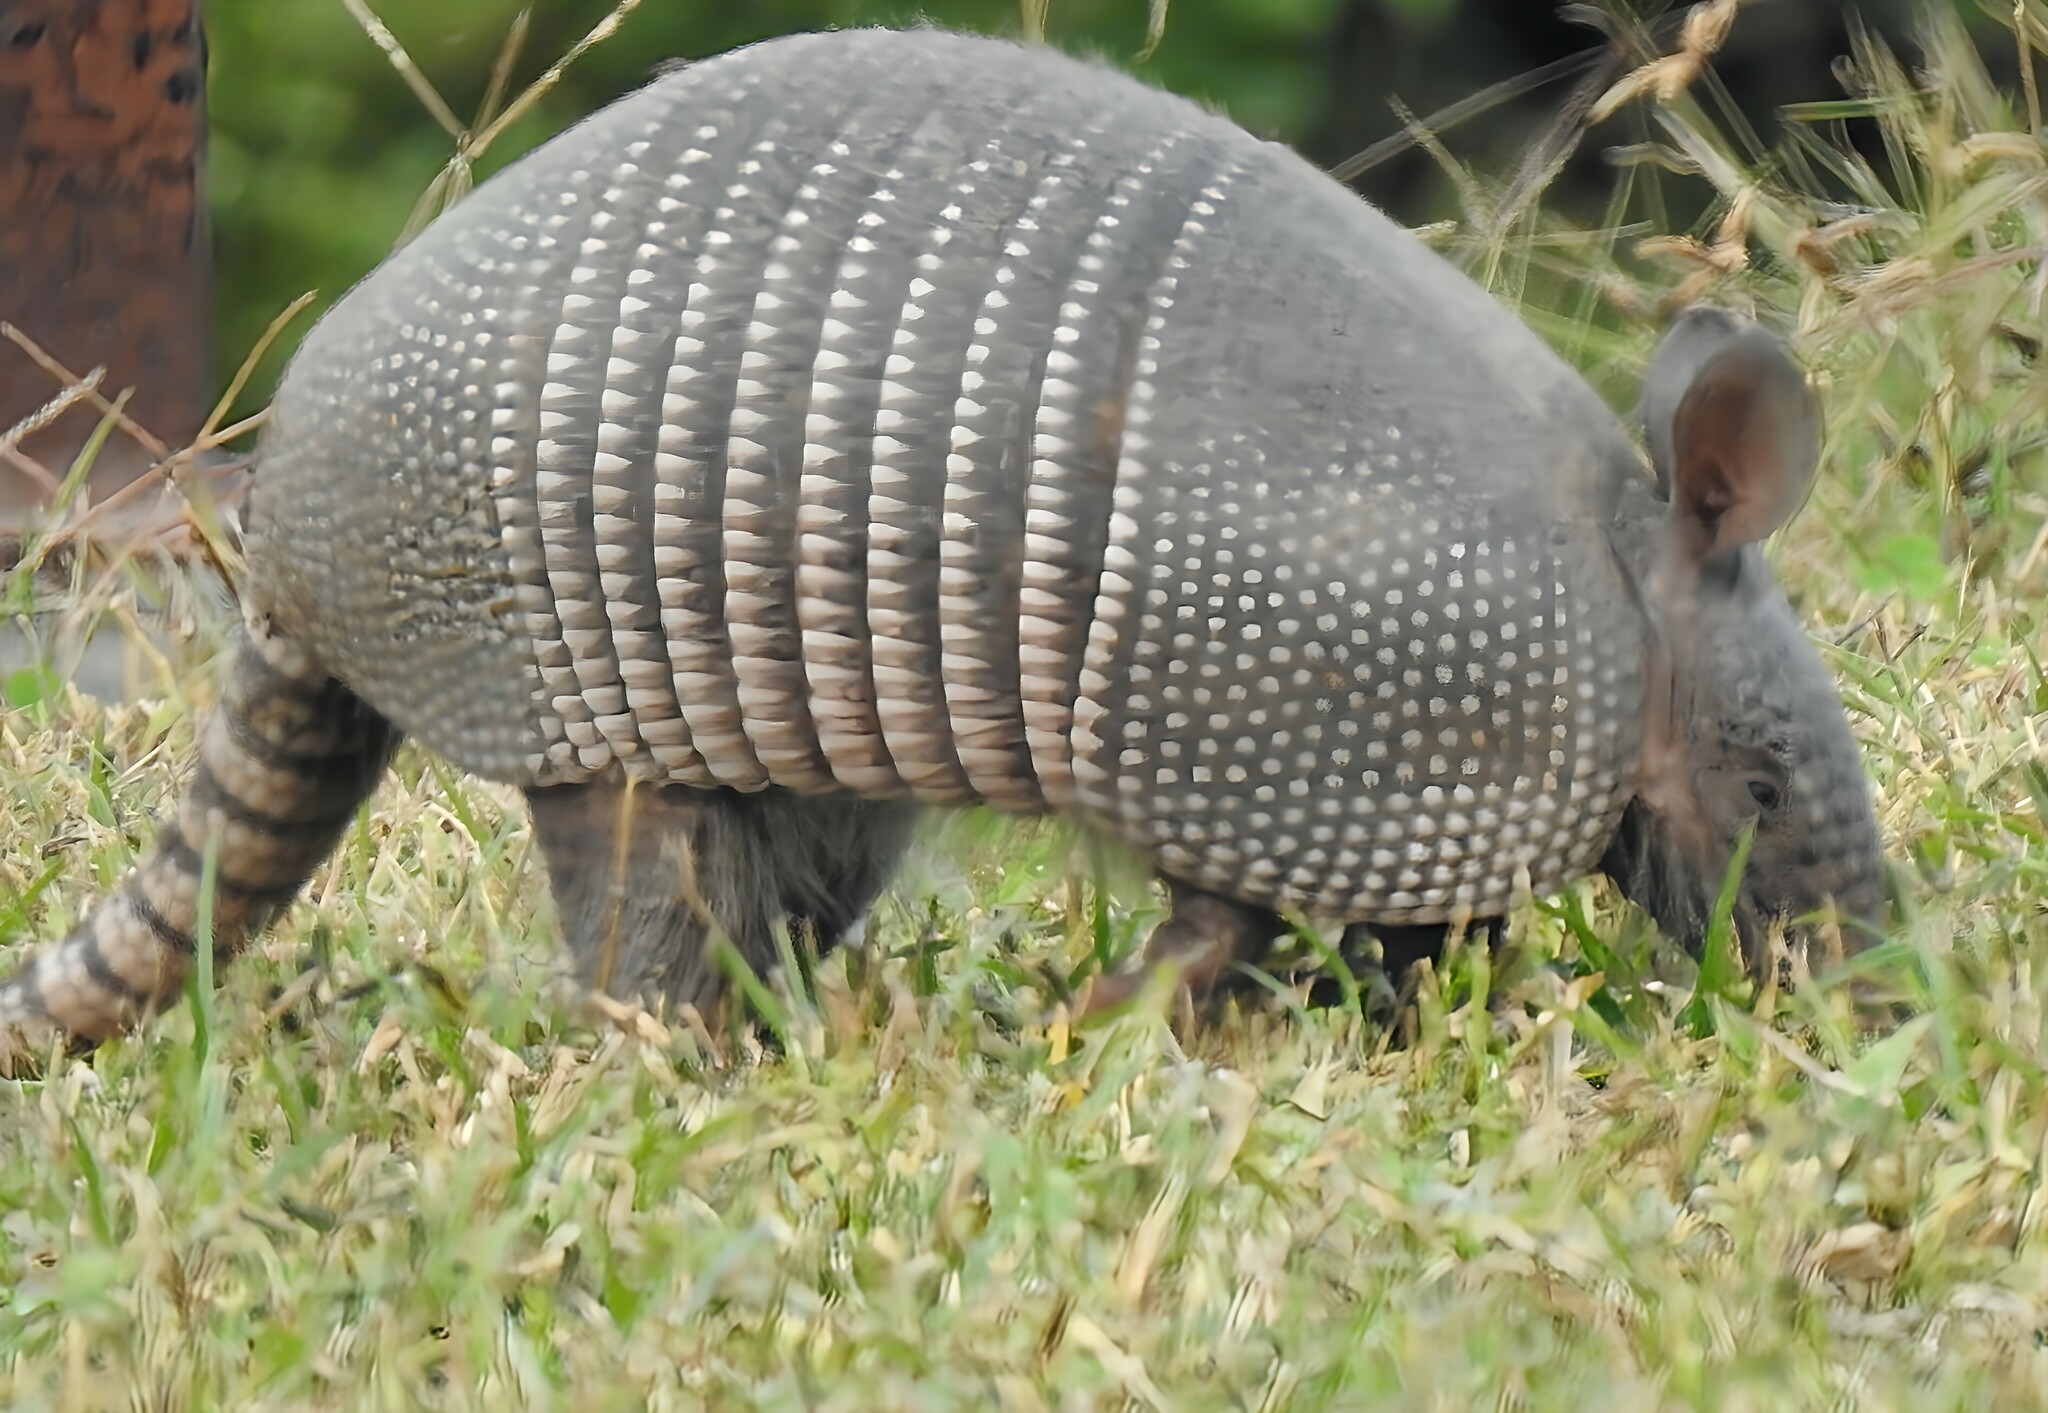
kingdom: Animalia
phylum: Chordata
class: Mammalia
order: Cingulata
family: Dasypodidae
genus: Dasypus
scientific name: Dasypus novemcinctus
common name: Nine-banded armadillo
